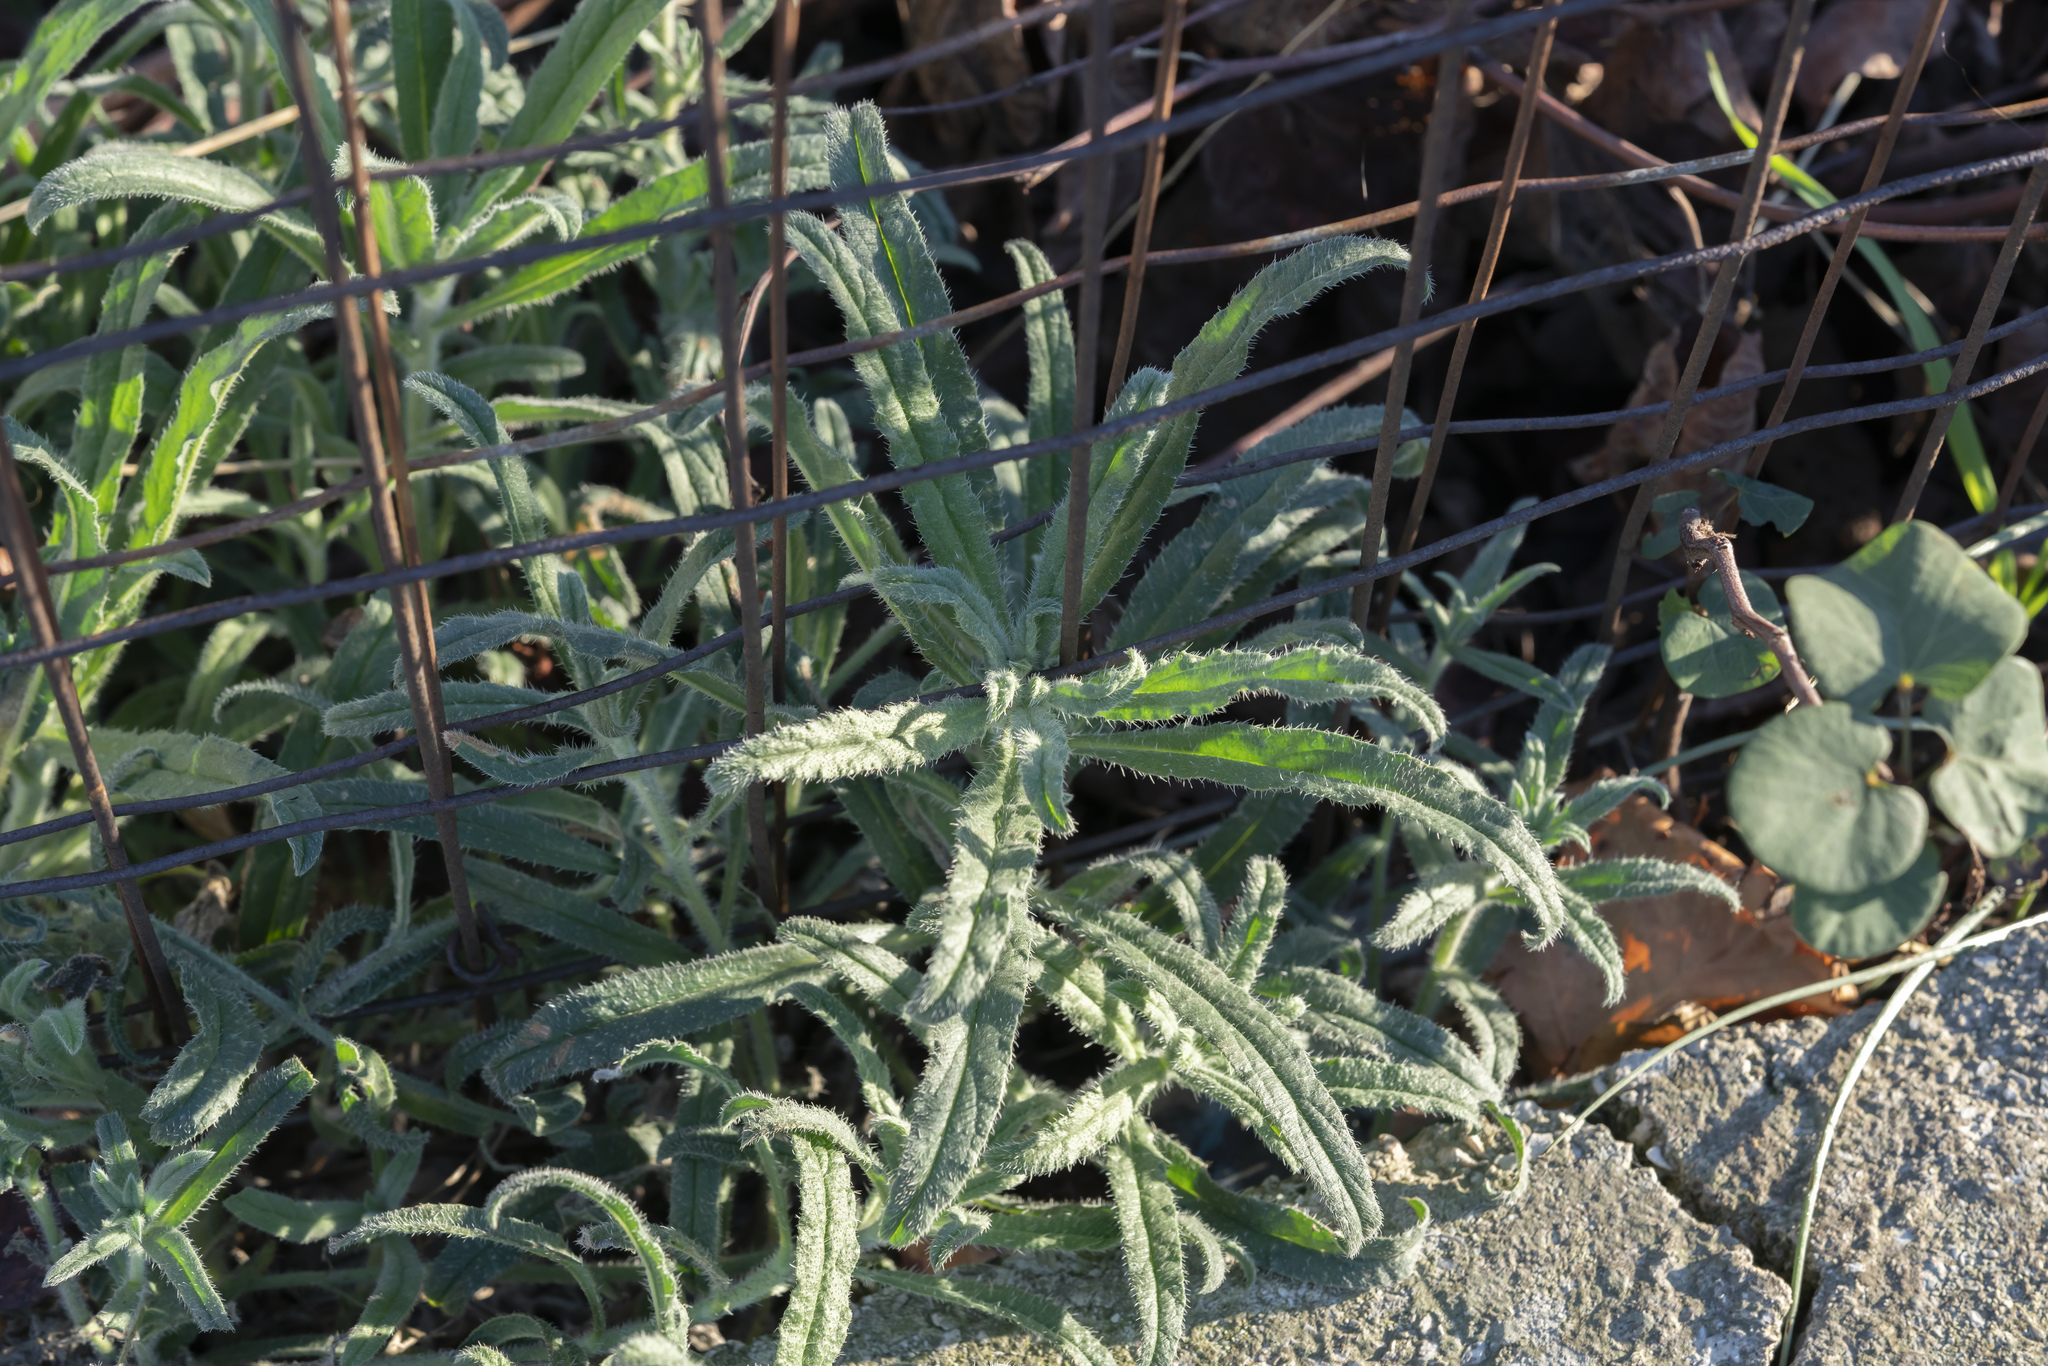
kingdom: Plantae
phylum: Tracheophyta
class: Magnoliopsida
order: Boraginales
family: Boraginaceae
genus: Echium
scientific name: Echium angustifolium
